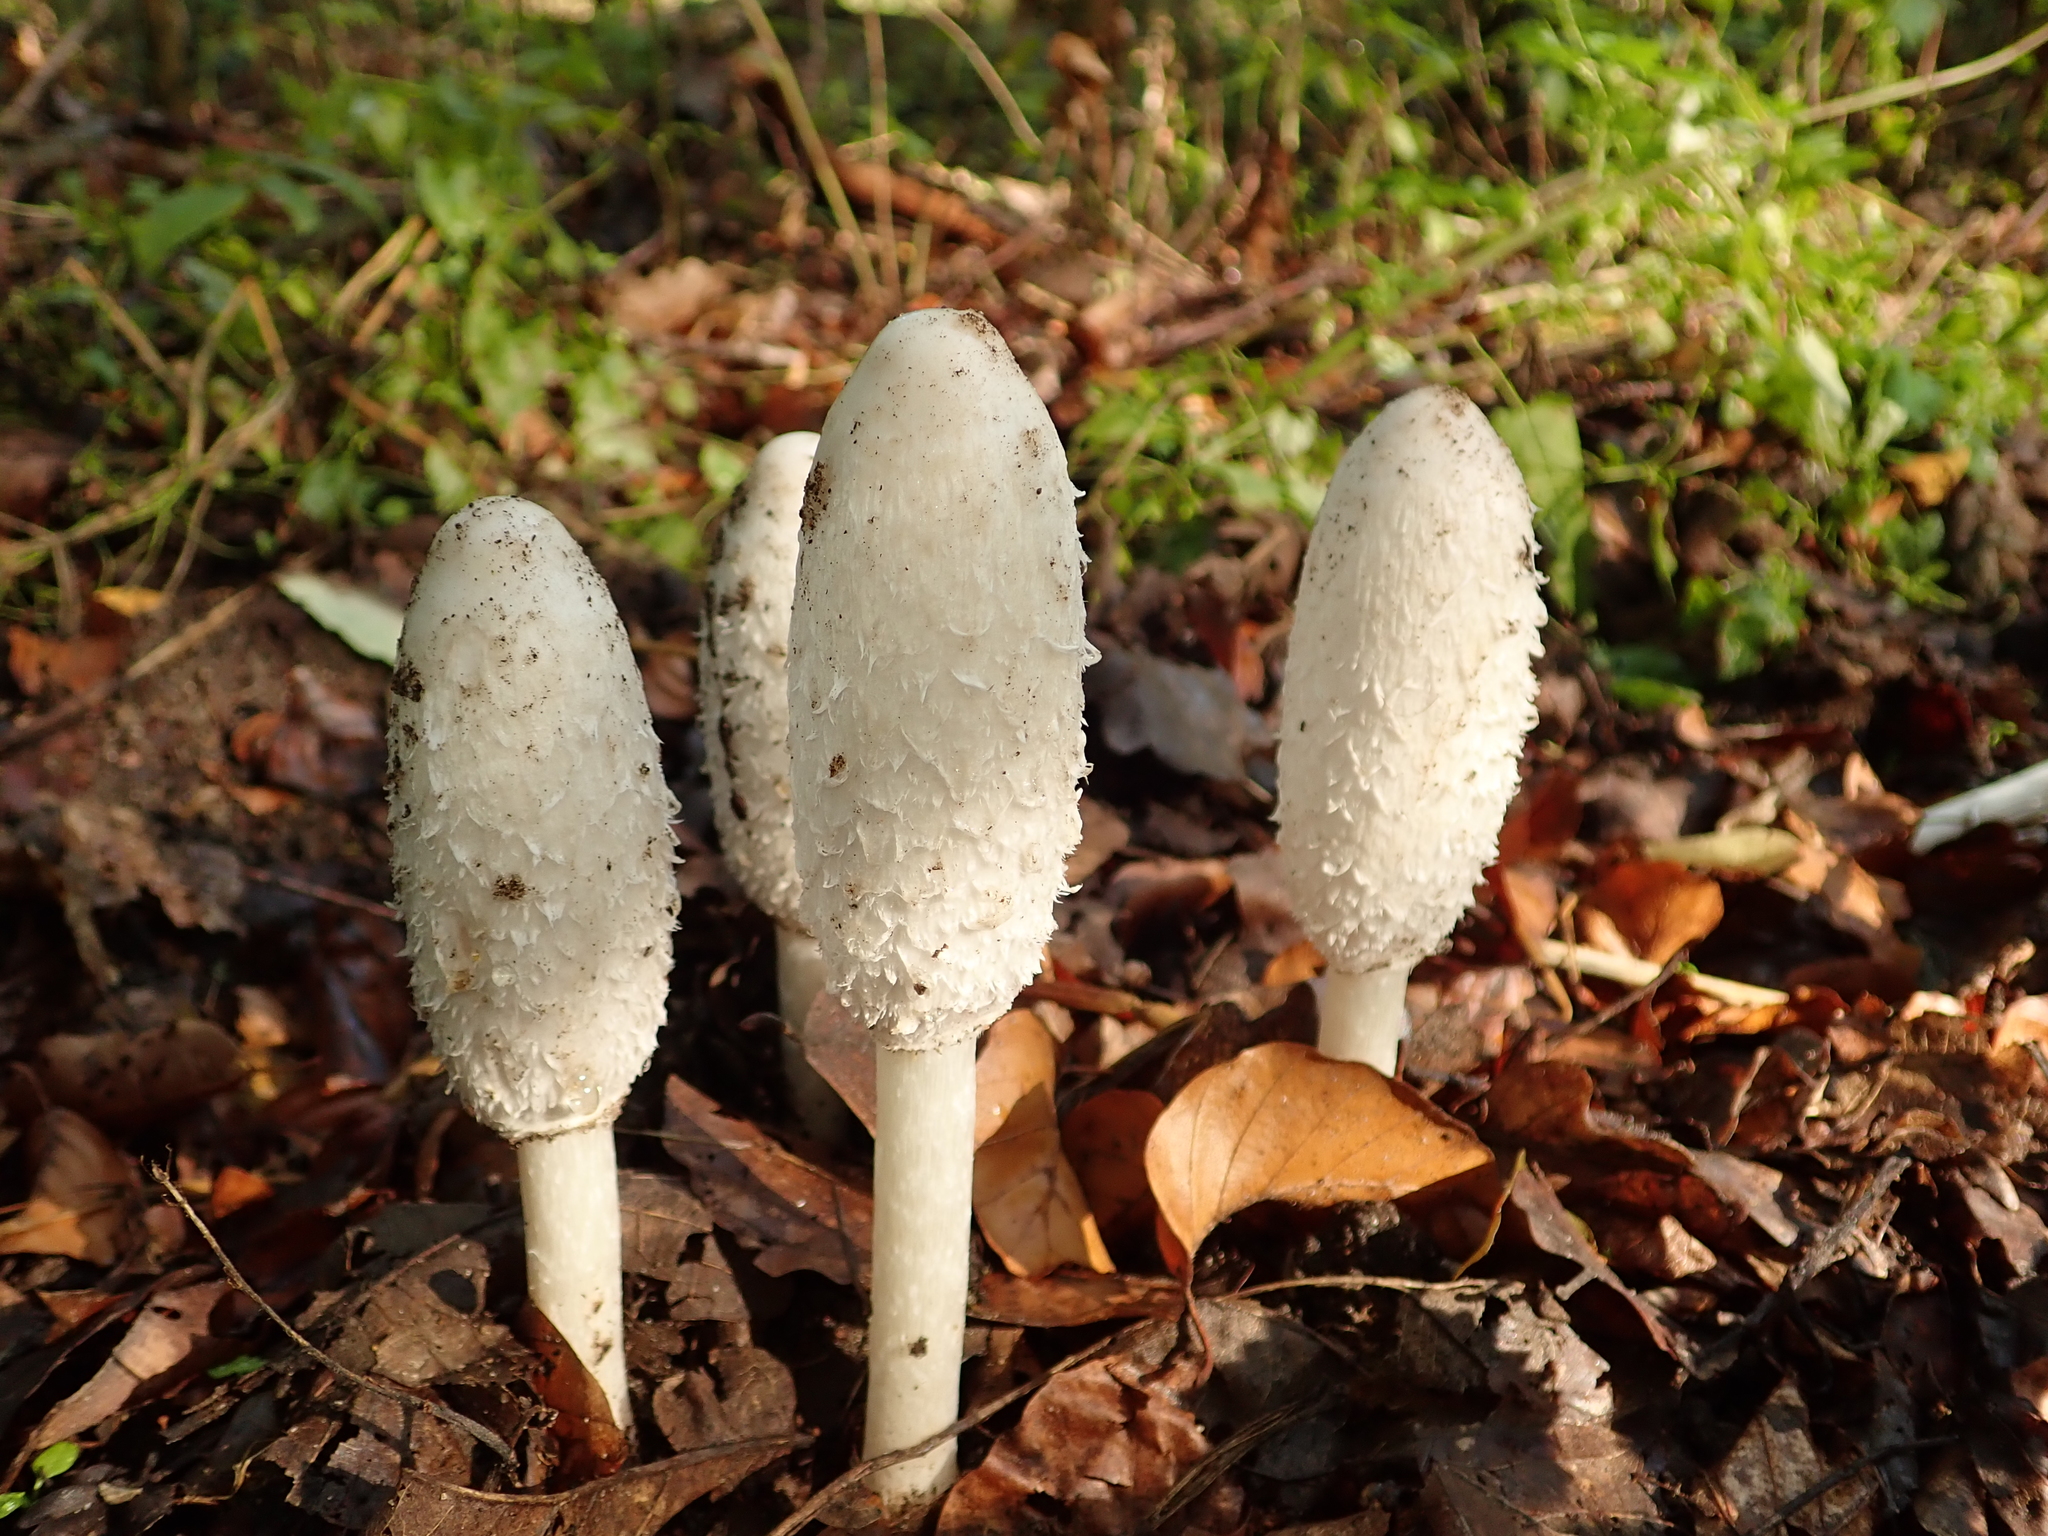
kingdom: Fungi
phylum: Basidiomycota
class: Agaricomycetes
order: Agaricales
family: Agaricaceae
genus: Coprinus
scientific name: Coprinus comatus
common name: Lawyer's wig
